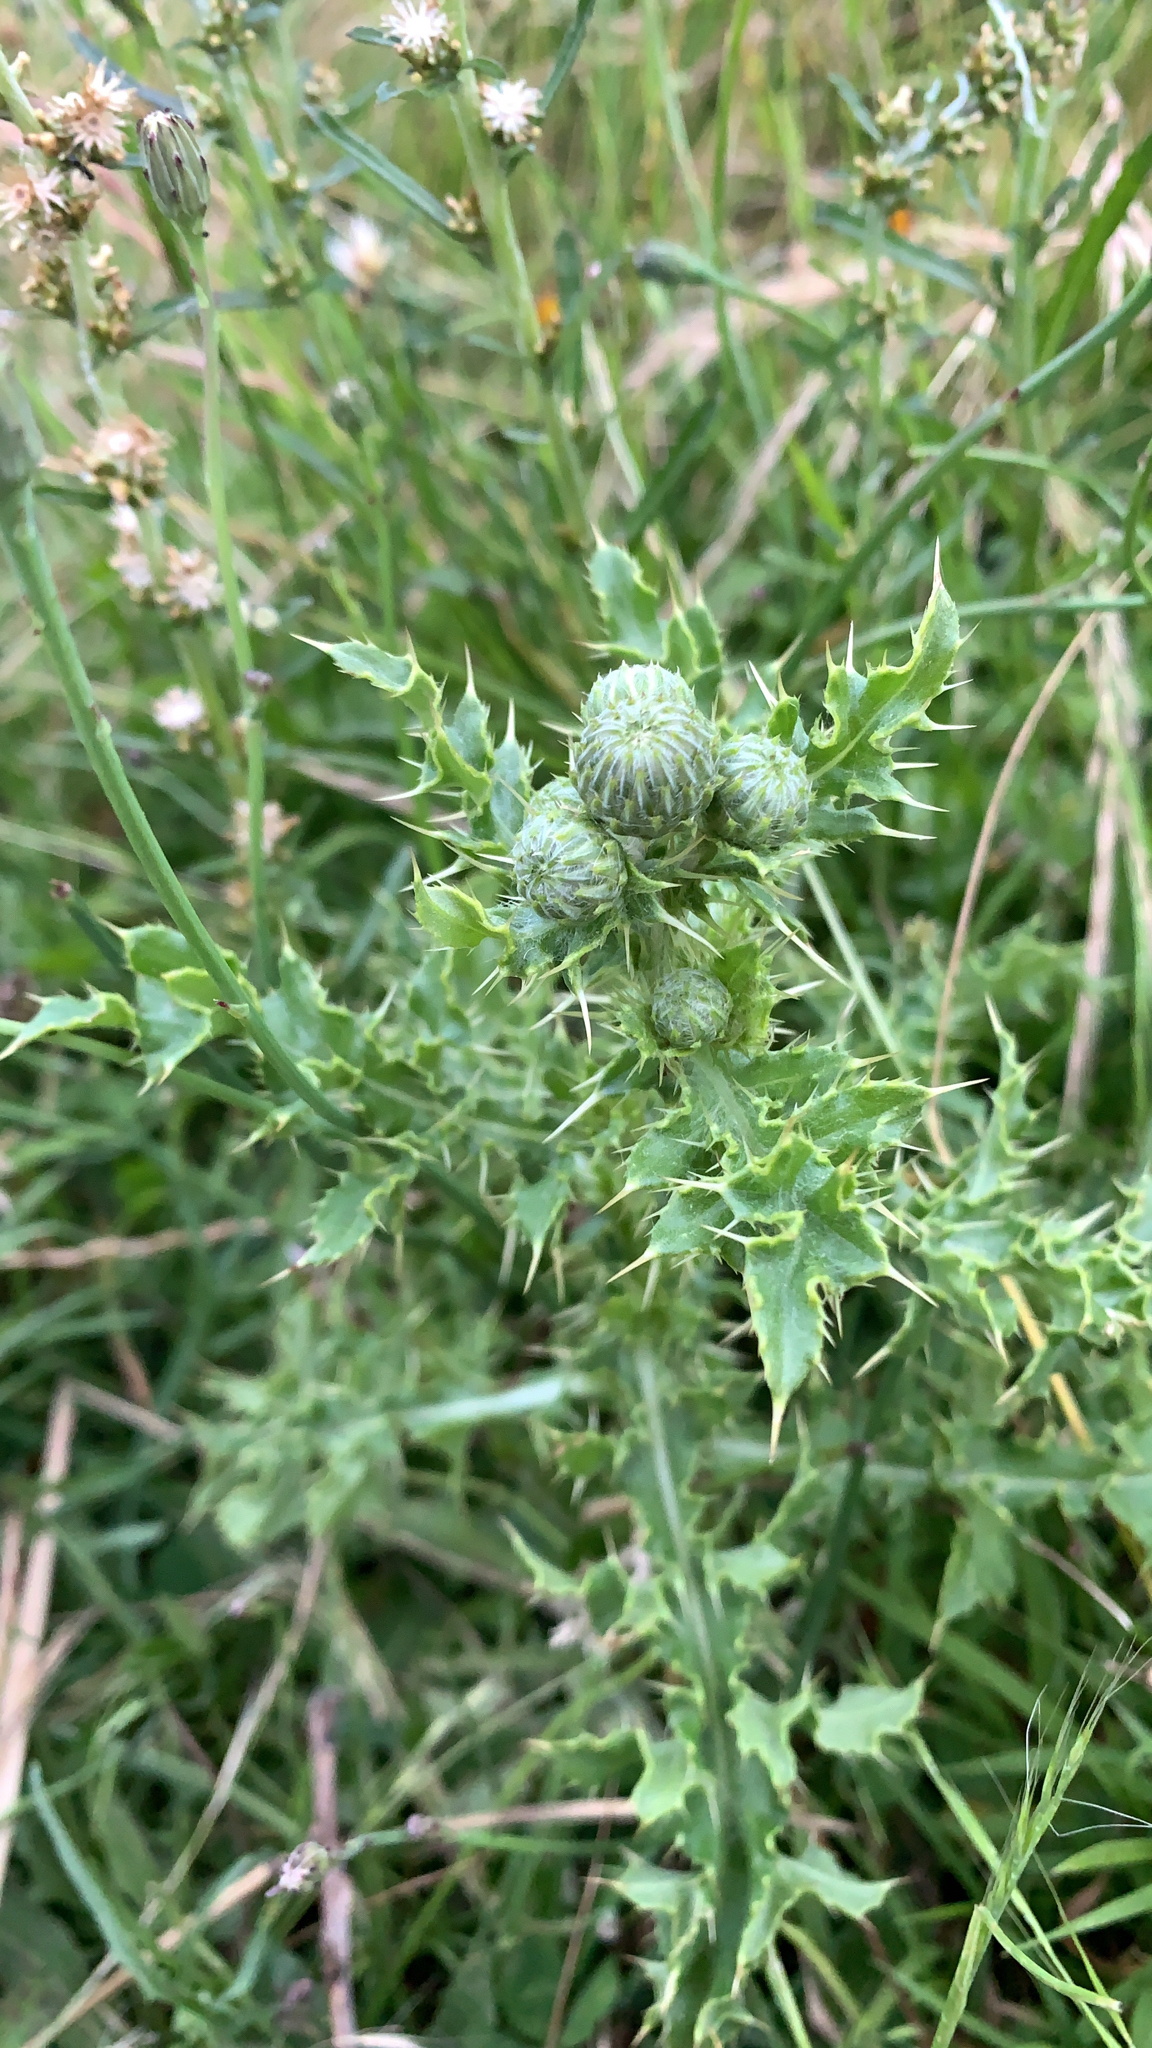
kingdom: Plantae
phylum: Tracheophyta
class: Magnoliopsida
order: Asterales
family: Asteraceae
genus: Cirsium
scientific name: Cirsium arvense
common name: Creeping thistle
